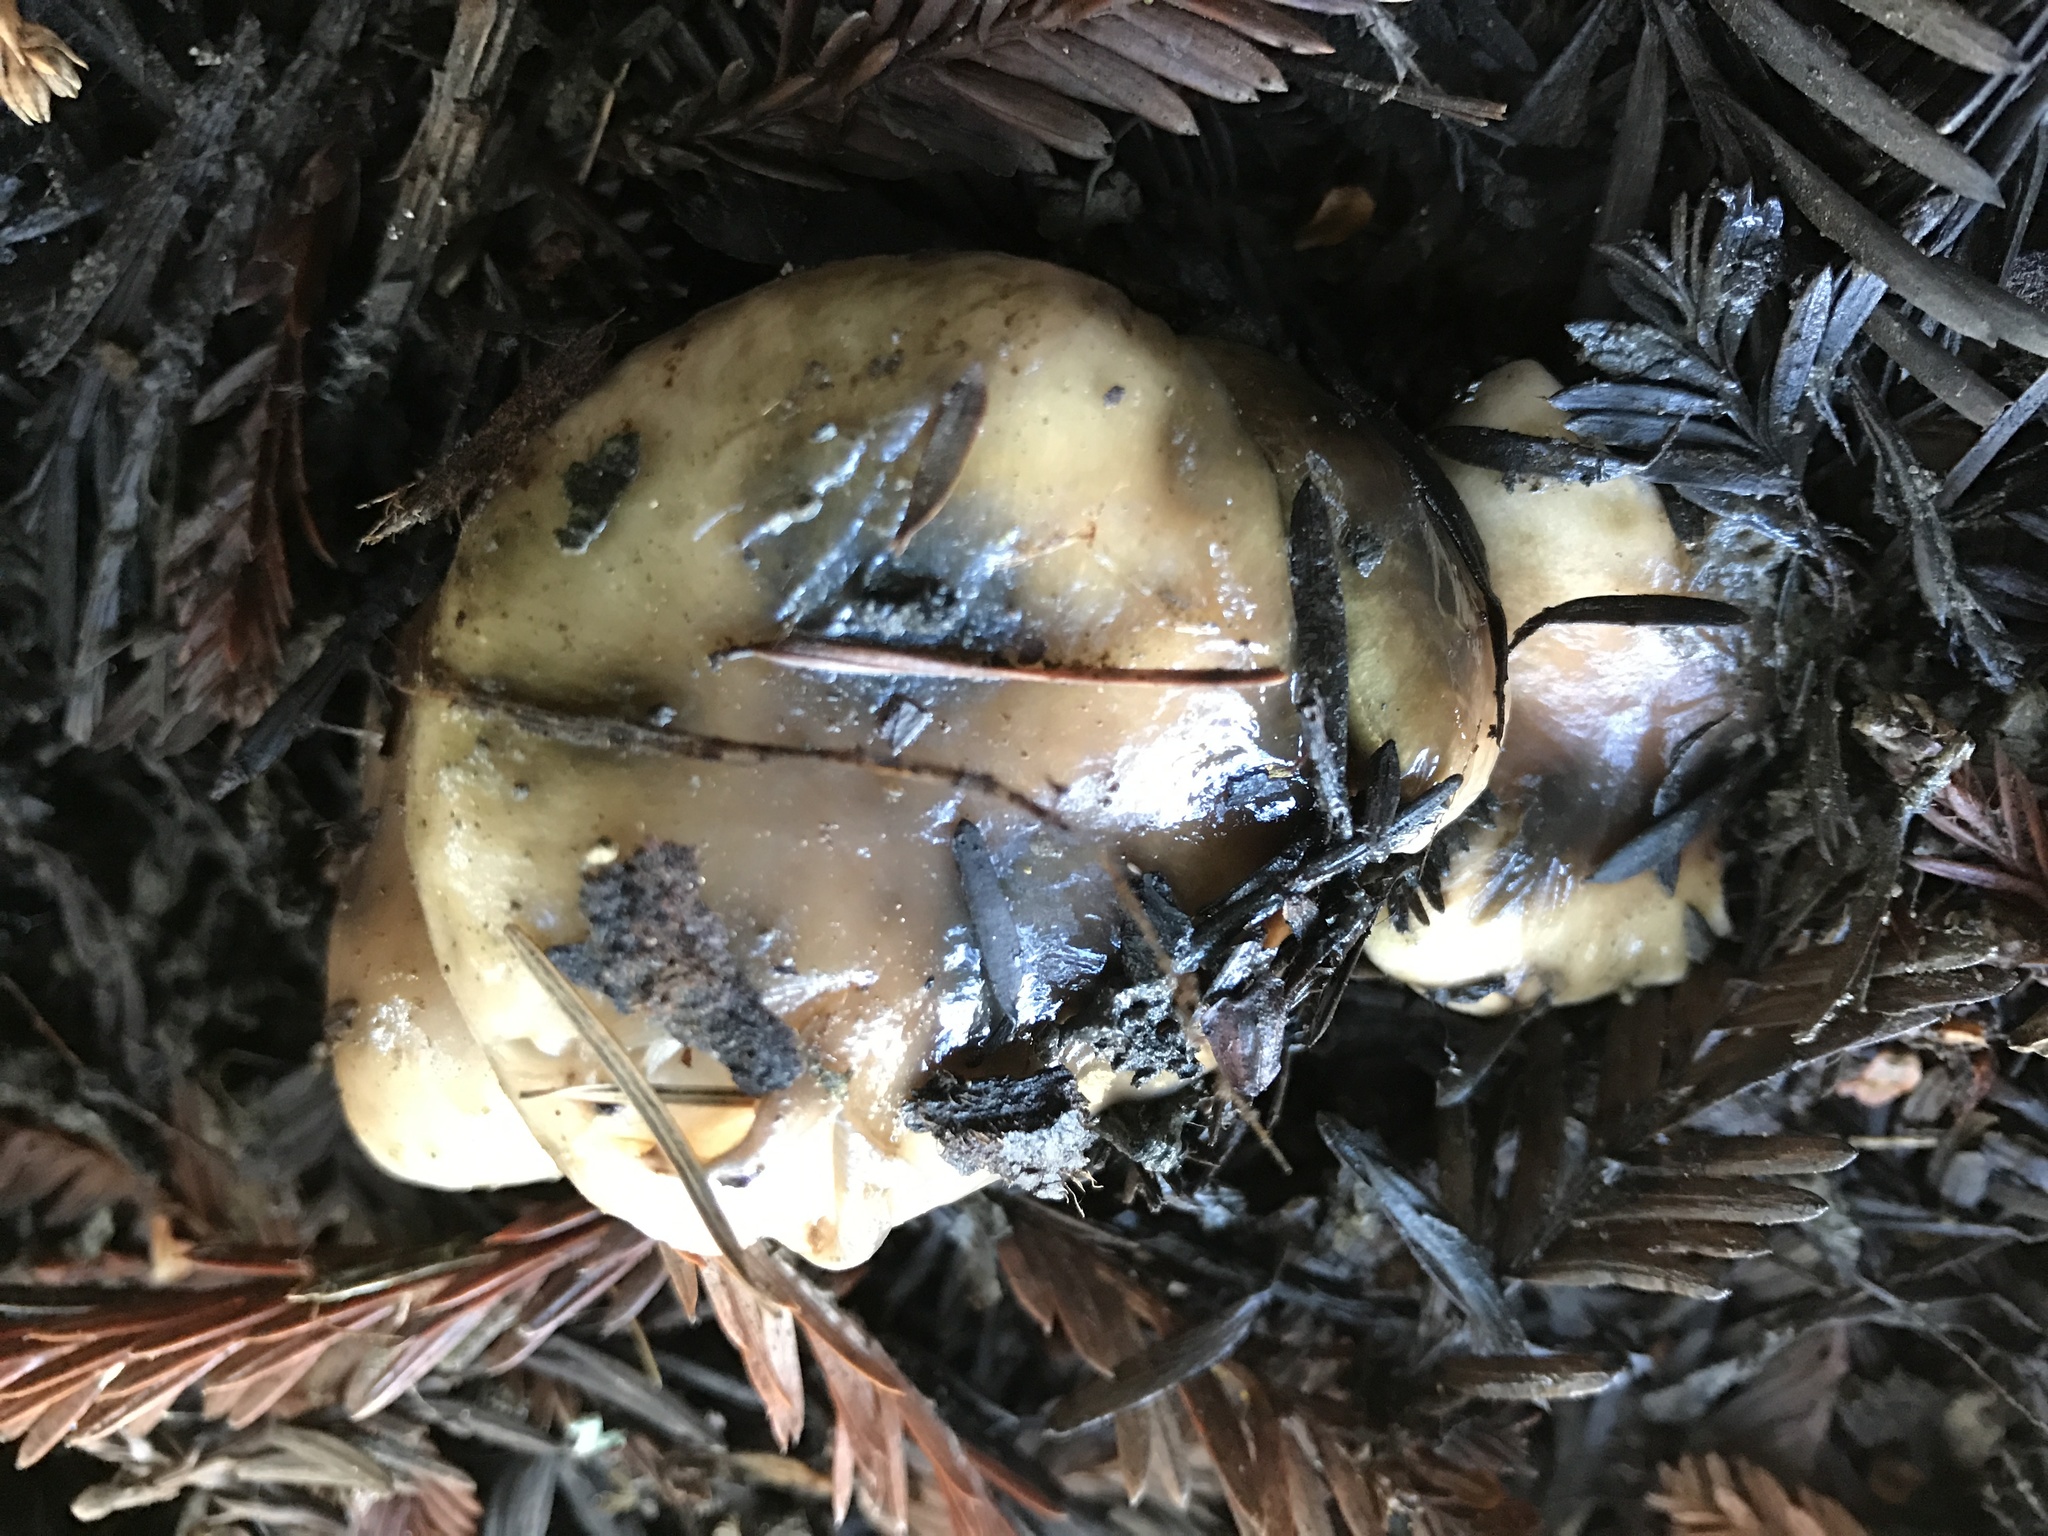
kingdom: Fungi
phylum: Basidiomycota
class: Agaricomycetes
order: Boletales
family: Gomphidiaceae
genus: Gomphidius
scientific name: Gomphidius oregonensis
